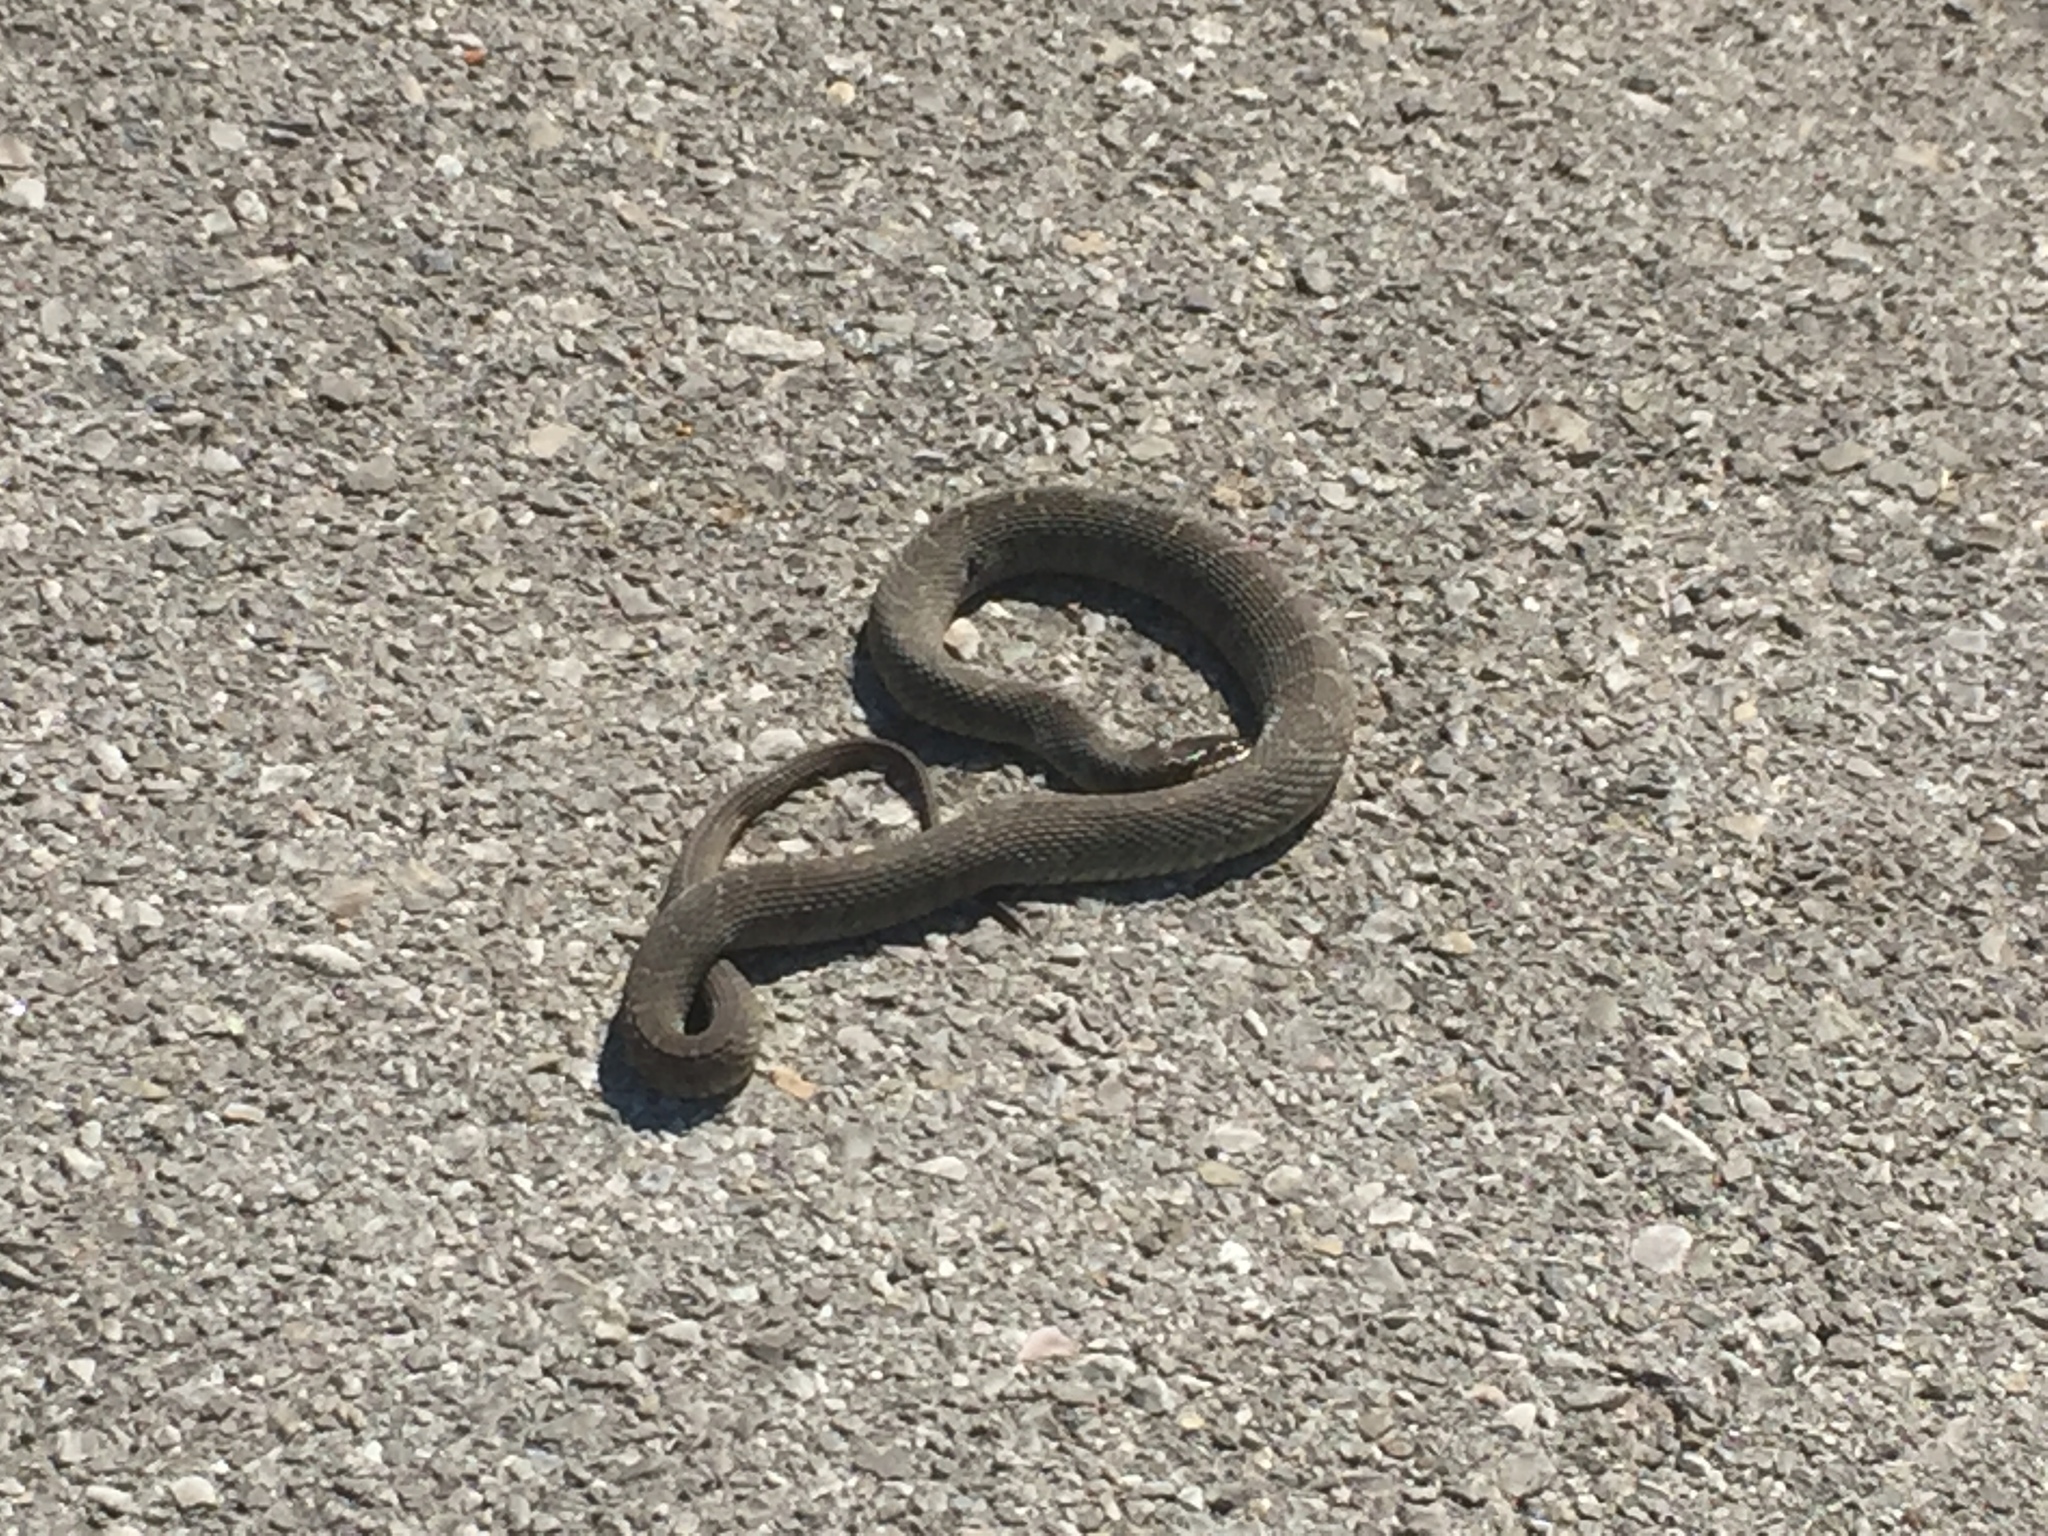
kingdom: Animalia
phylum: Chordata
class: Squamata
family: Colubridae
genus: Nerodia
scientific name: Nerodia erythrogaster
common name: Plainbelly water snake
